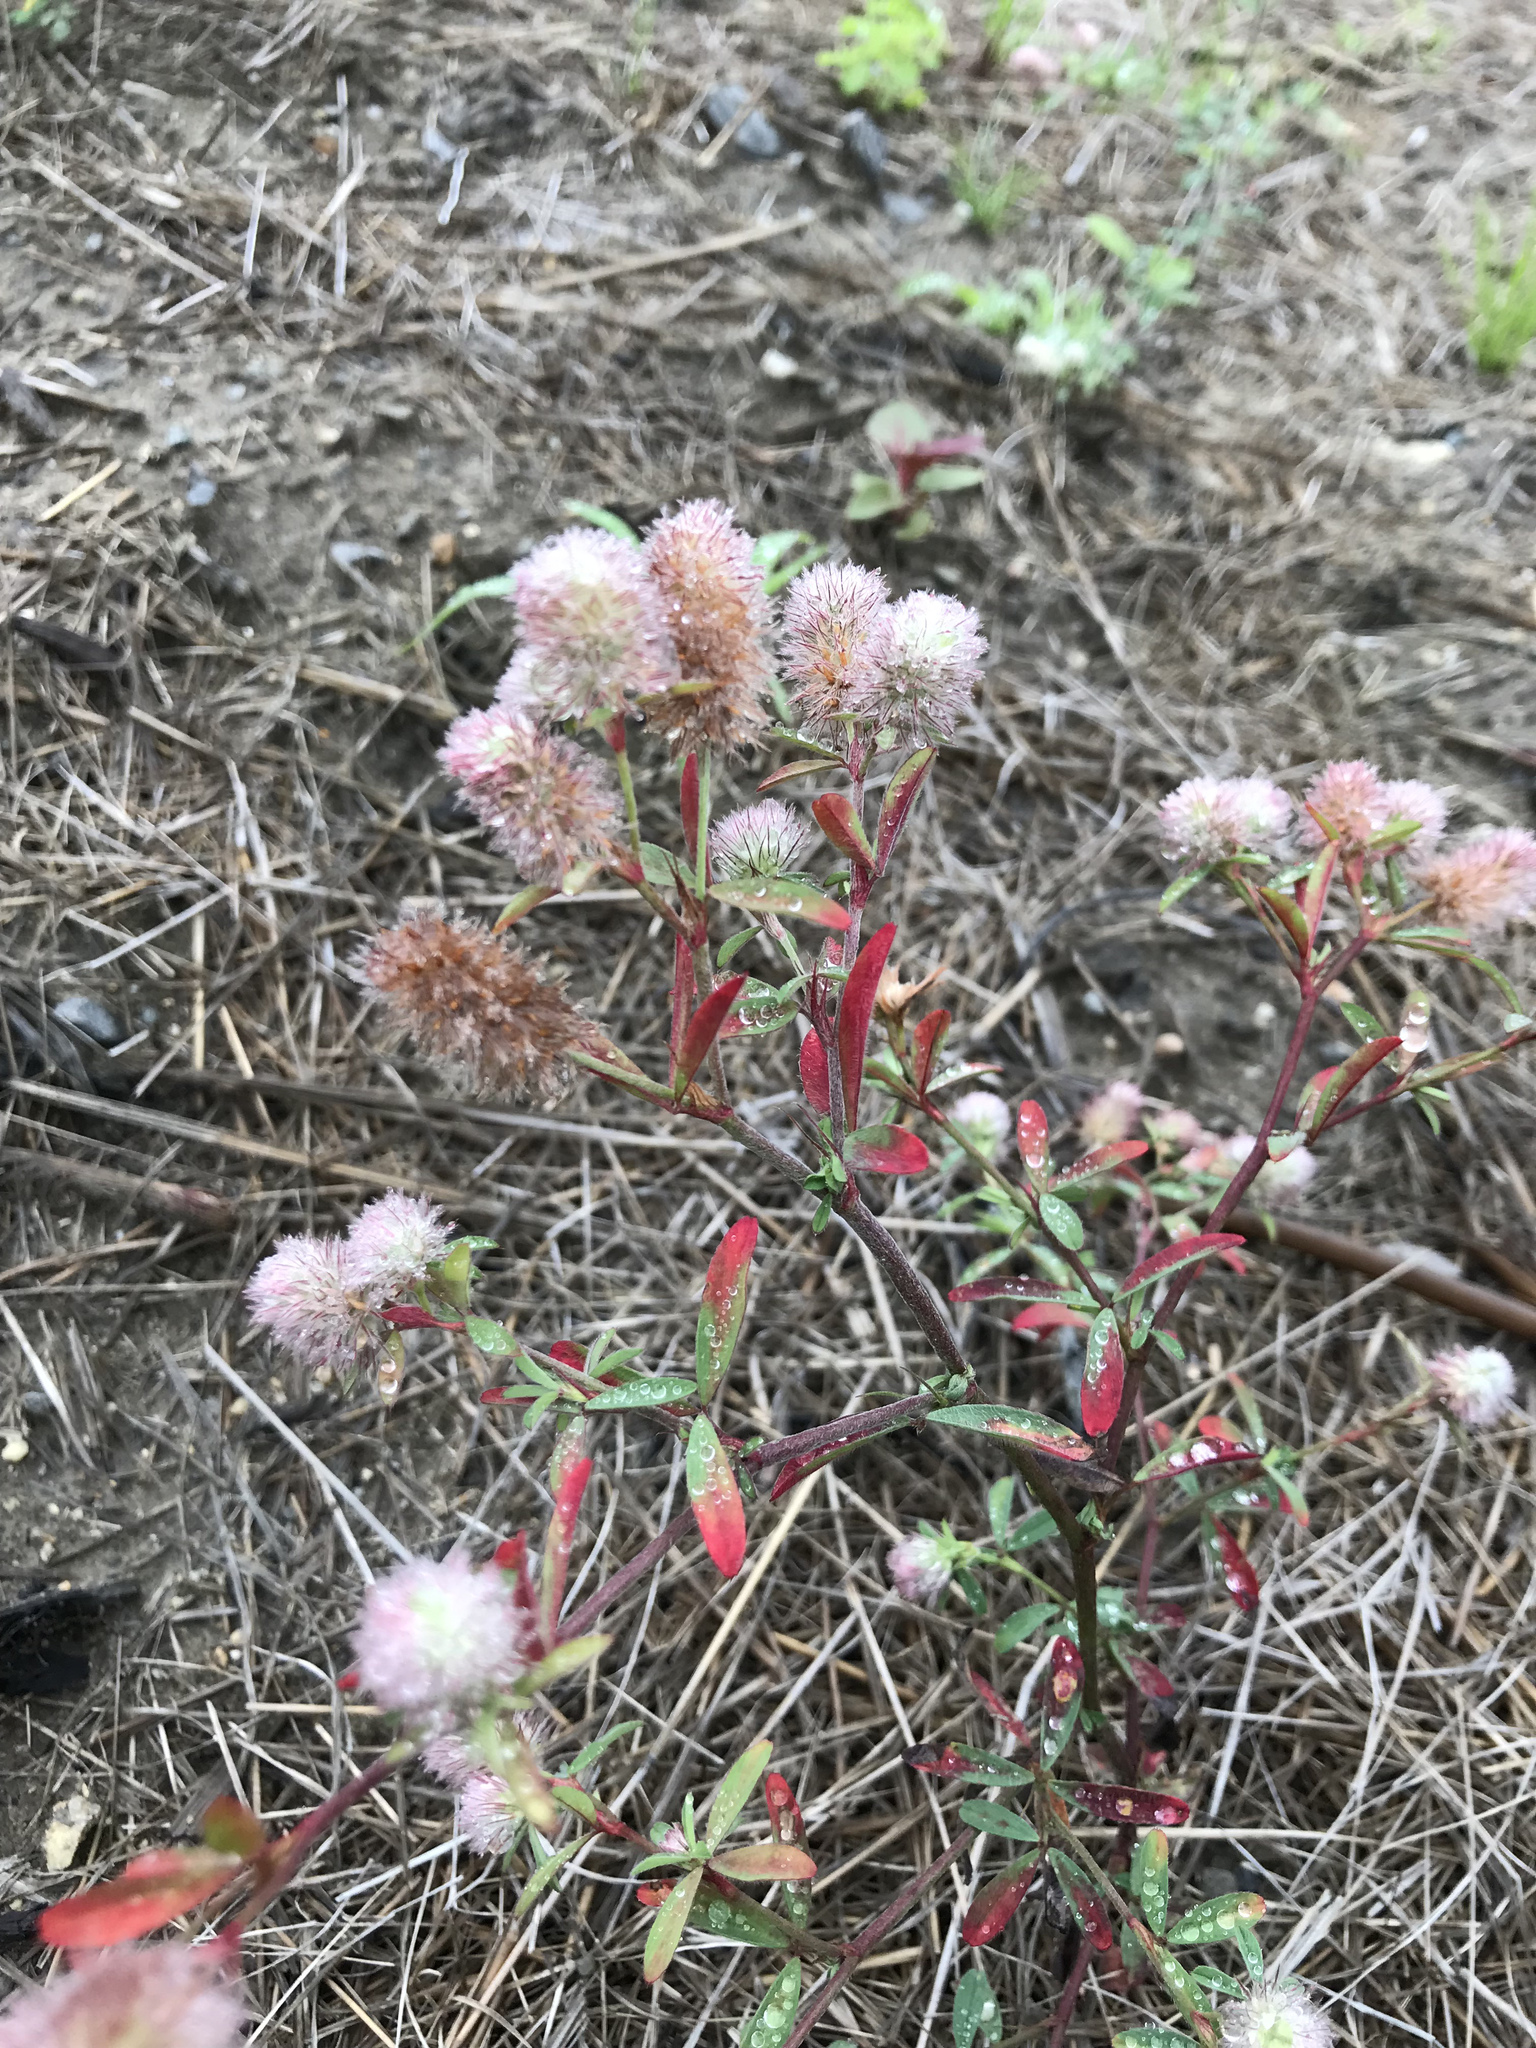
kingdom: Plantae
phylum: Tracheophyta
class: Magnoliopsida
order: Fabales
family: Fabaceae
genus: Trifolium
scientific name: Trifolium arvense
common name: Hare's-foot clover
